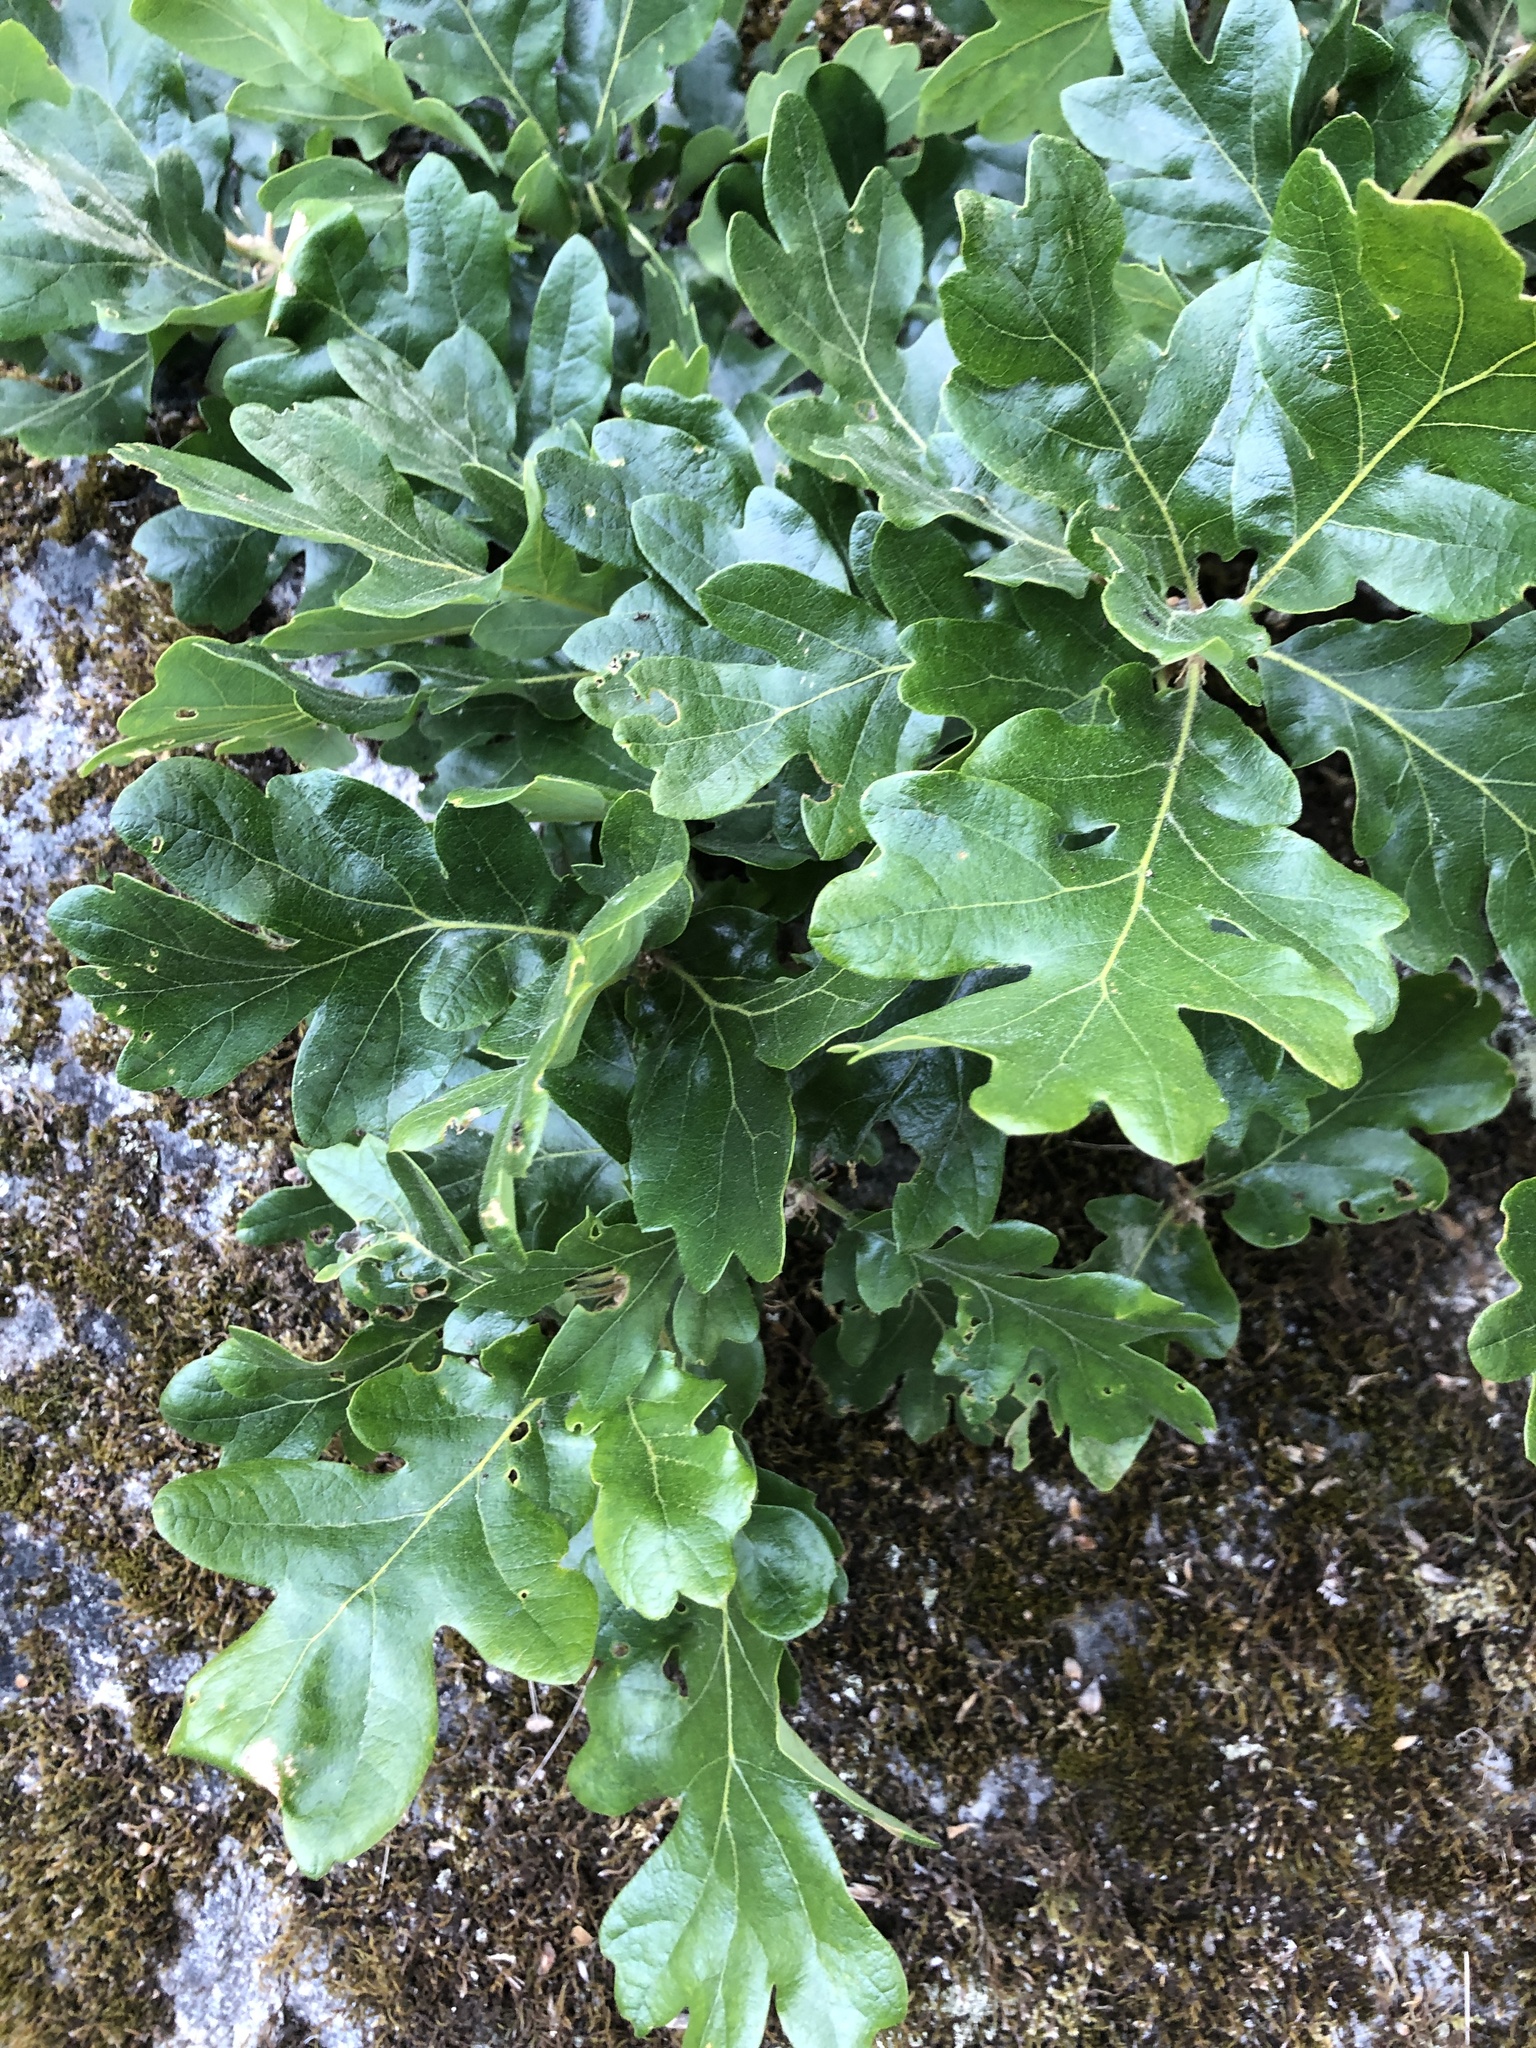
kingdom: Plantae
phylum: Tracheophyta
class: Magnoliopsida
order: Fagales
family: Fagaceae
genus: Quercus
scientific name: Quercus garryana
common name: Garry oak
